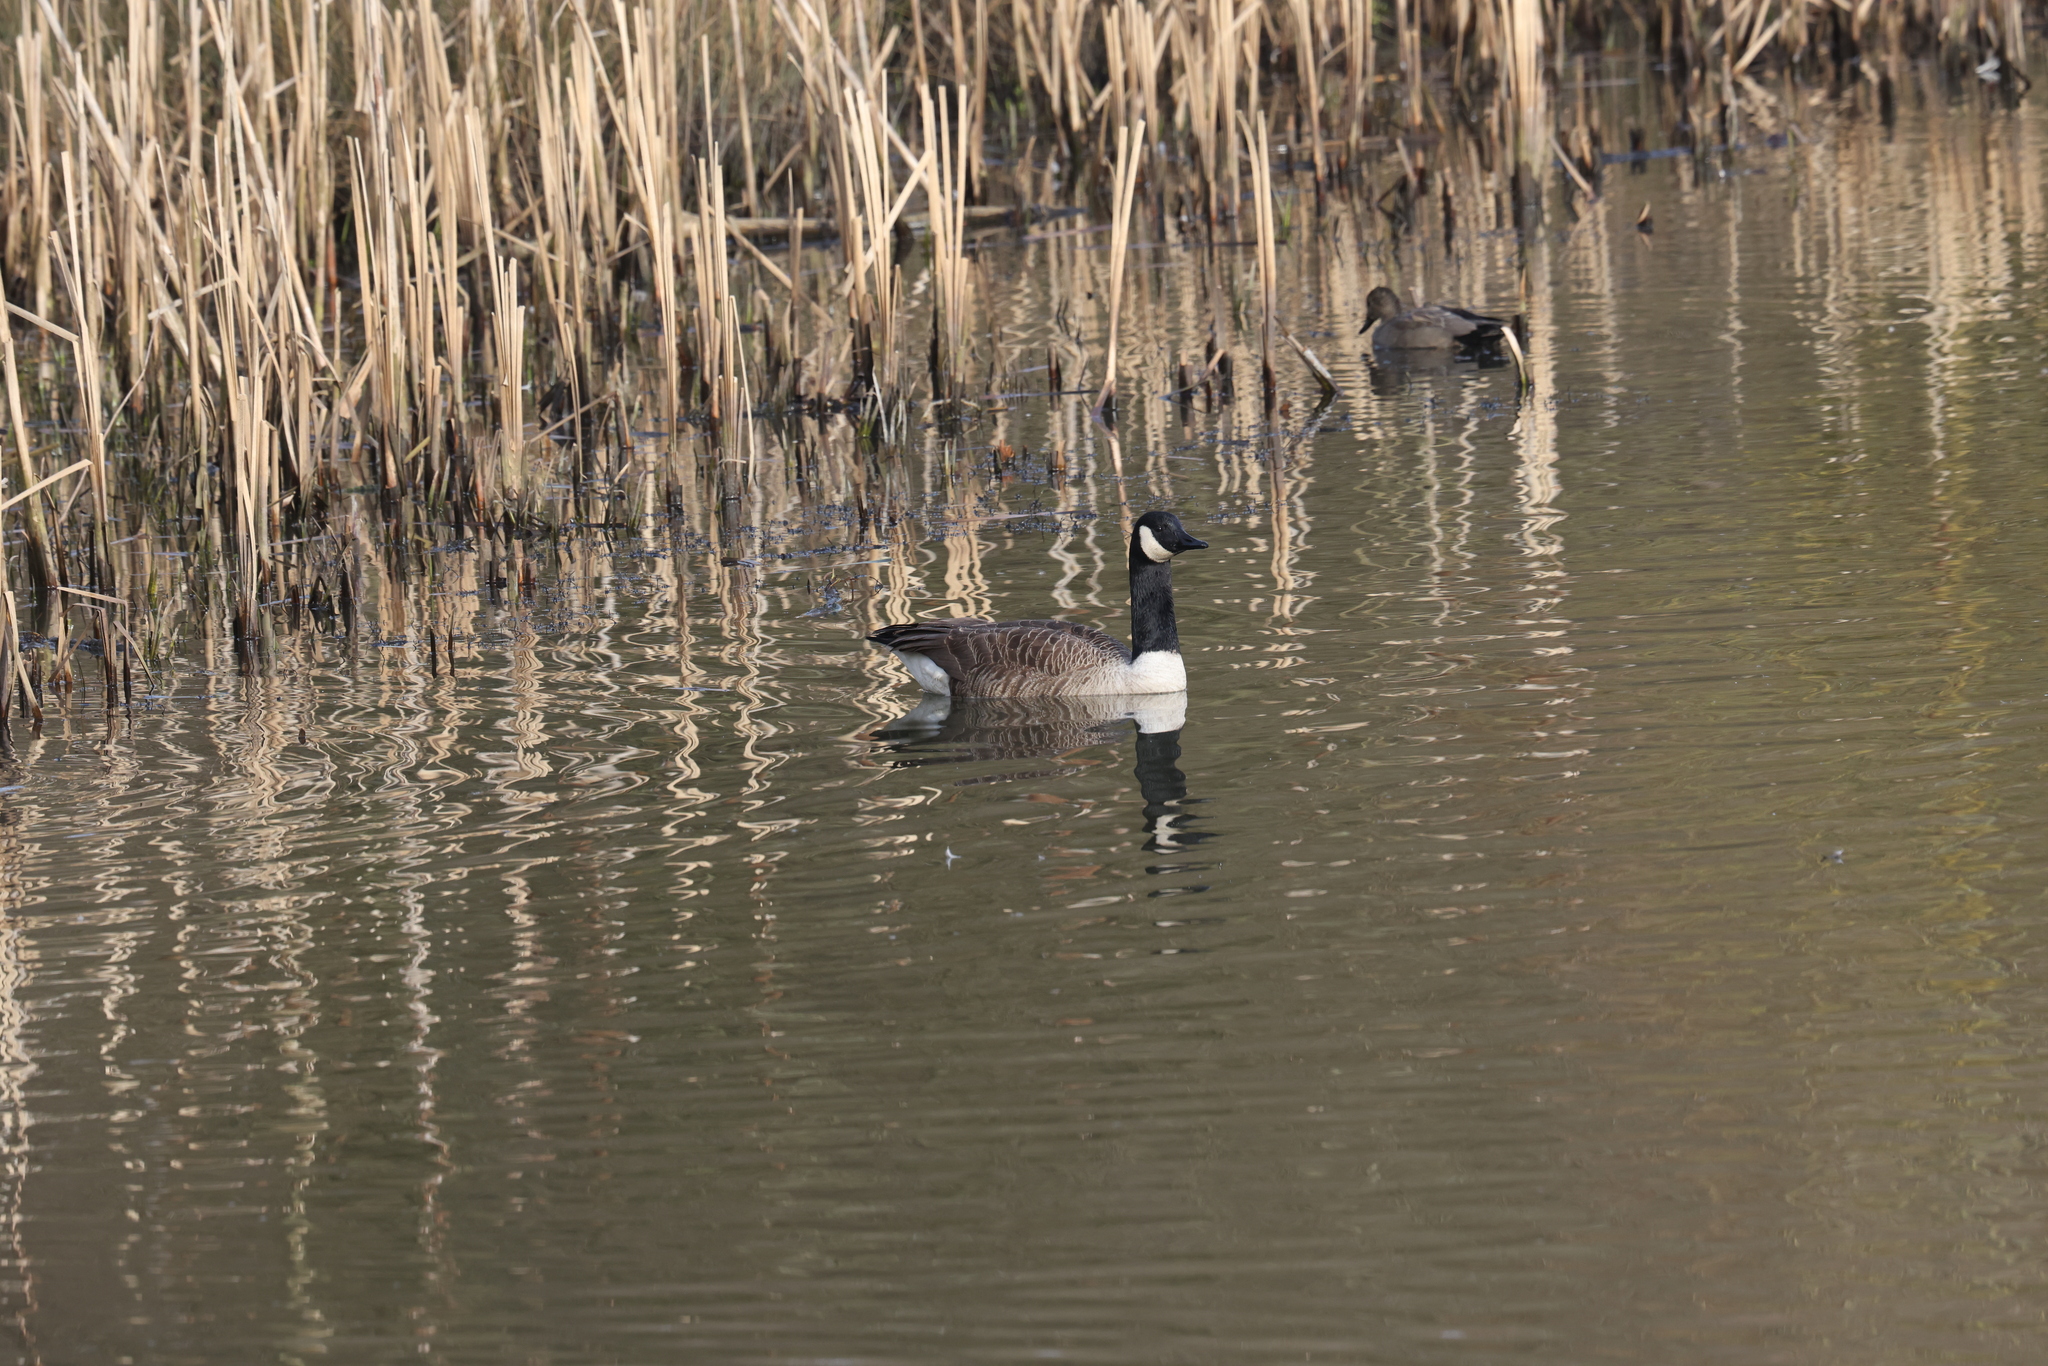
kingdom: Animalia
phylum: Chordata
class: Aves
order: Anseriformes
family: Anatidae
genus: Branta
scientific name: Branta canadensis
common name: Canada goose
